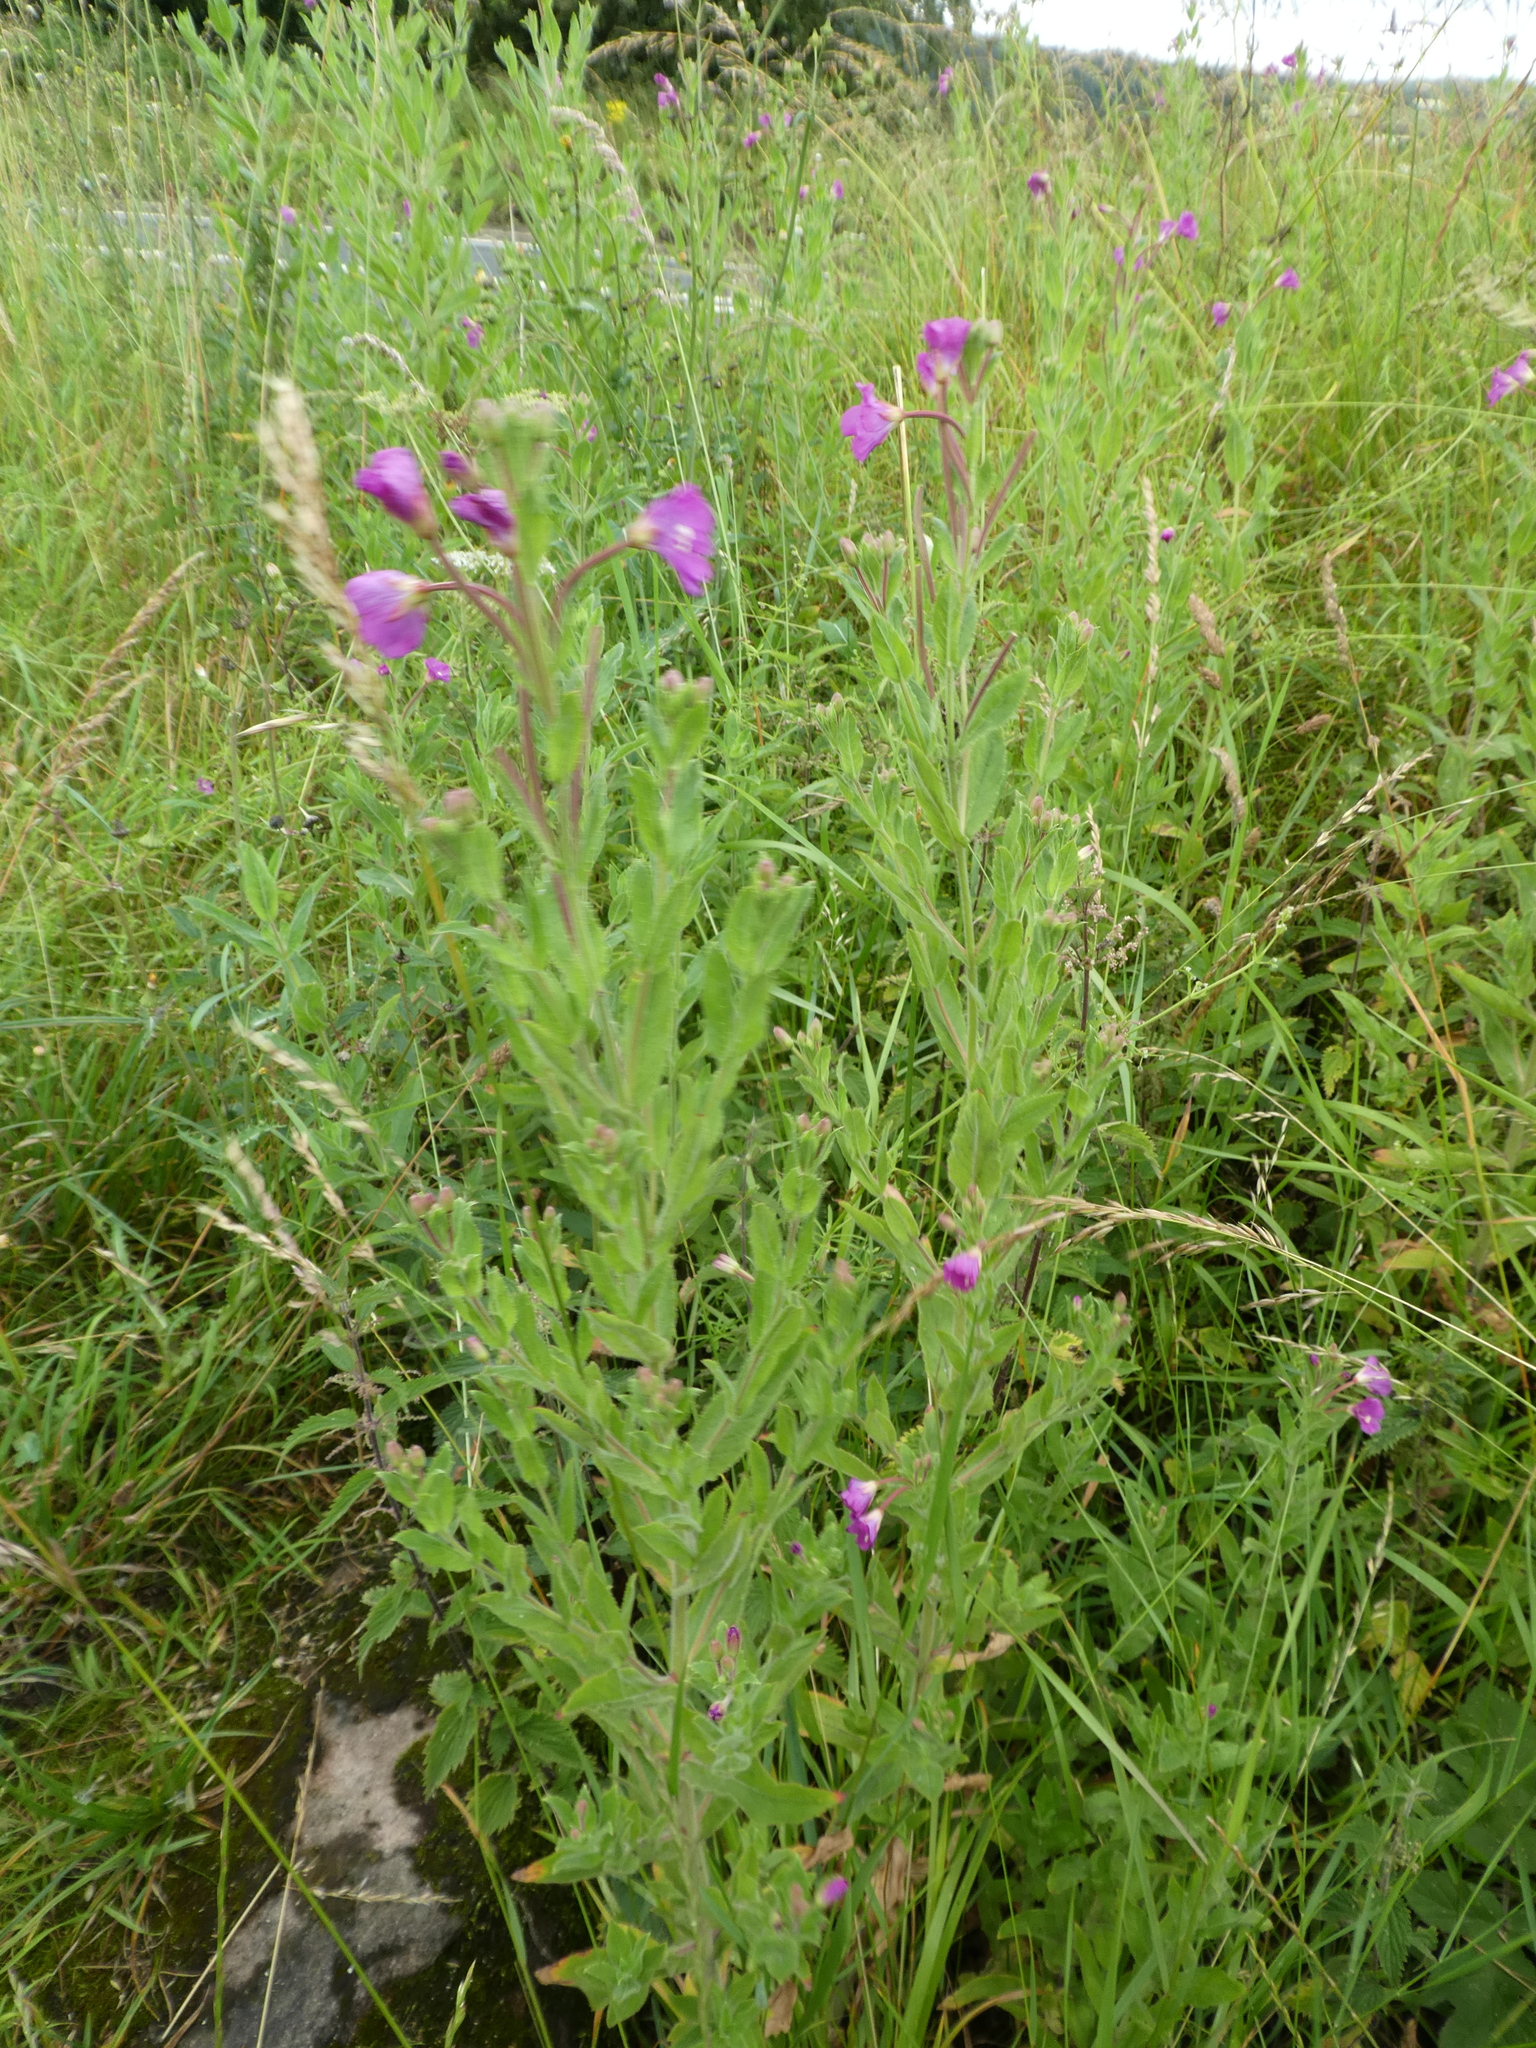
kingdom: Plantae
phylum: Tracheophyta
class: Magnoliopsida
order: Myrtales
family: Onagraceae
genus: Epilobium
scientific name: Epilobium hirsutum
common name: Great willowherb
